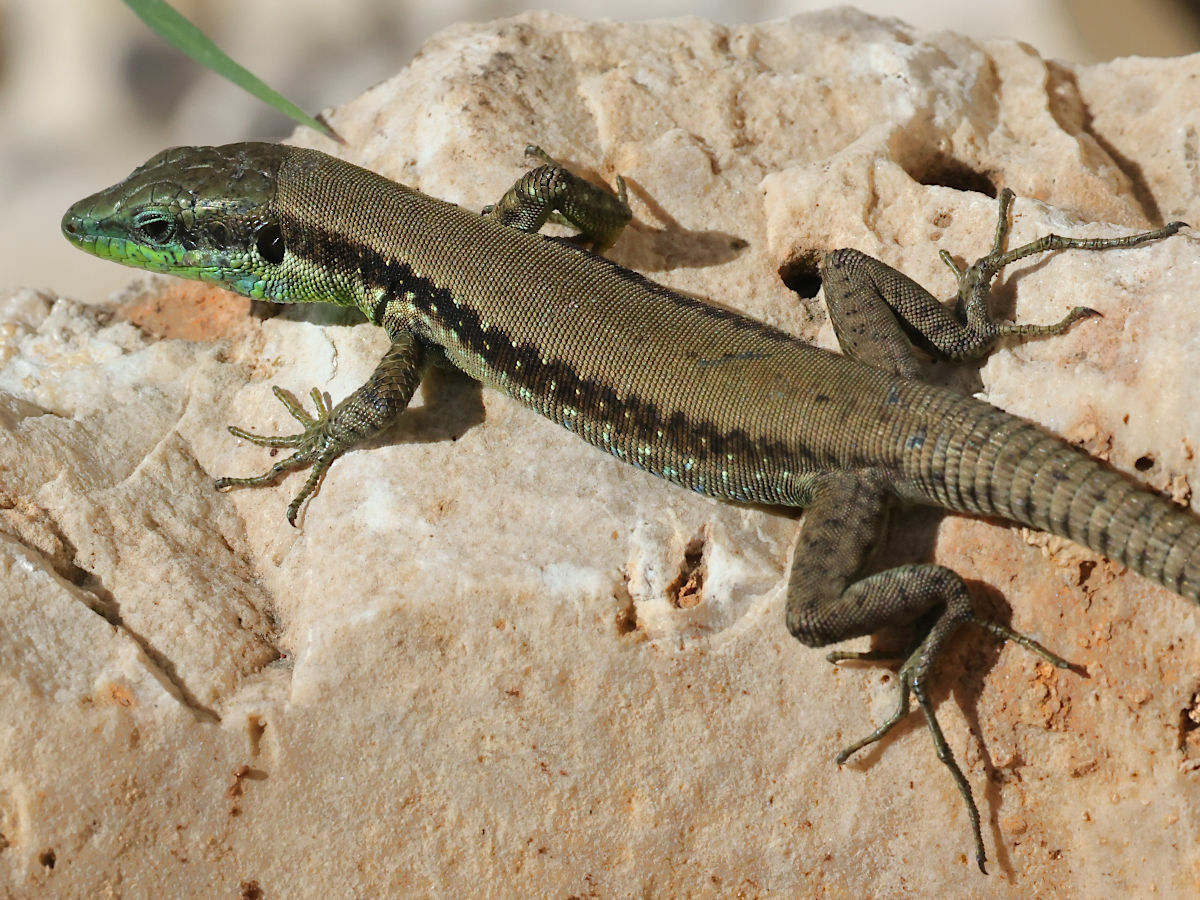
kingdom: Animalia
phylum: Chordata
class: Squamata
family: Lacertidae
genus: Phoenicolacerta
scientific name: Phoenicolacerta laevis
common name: Lebanon lizard
